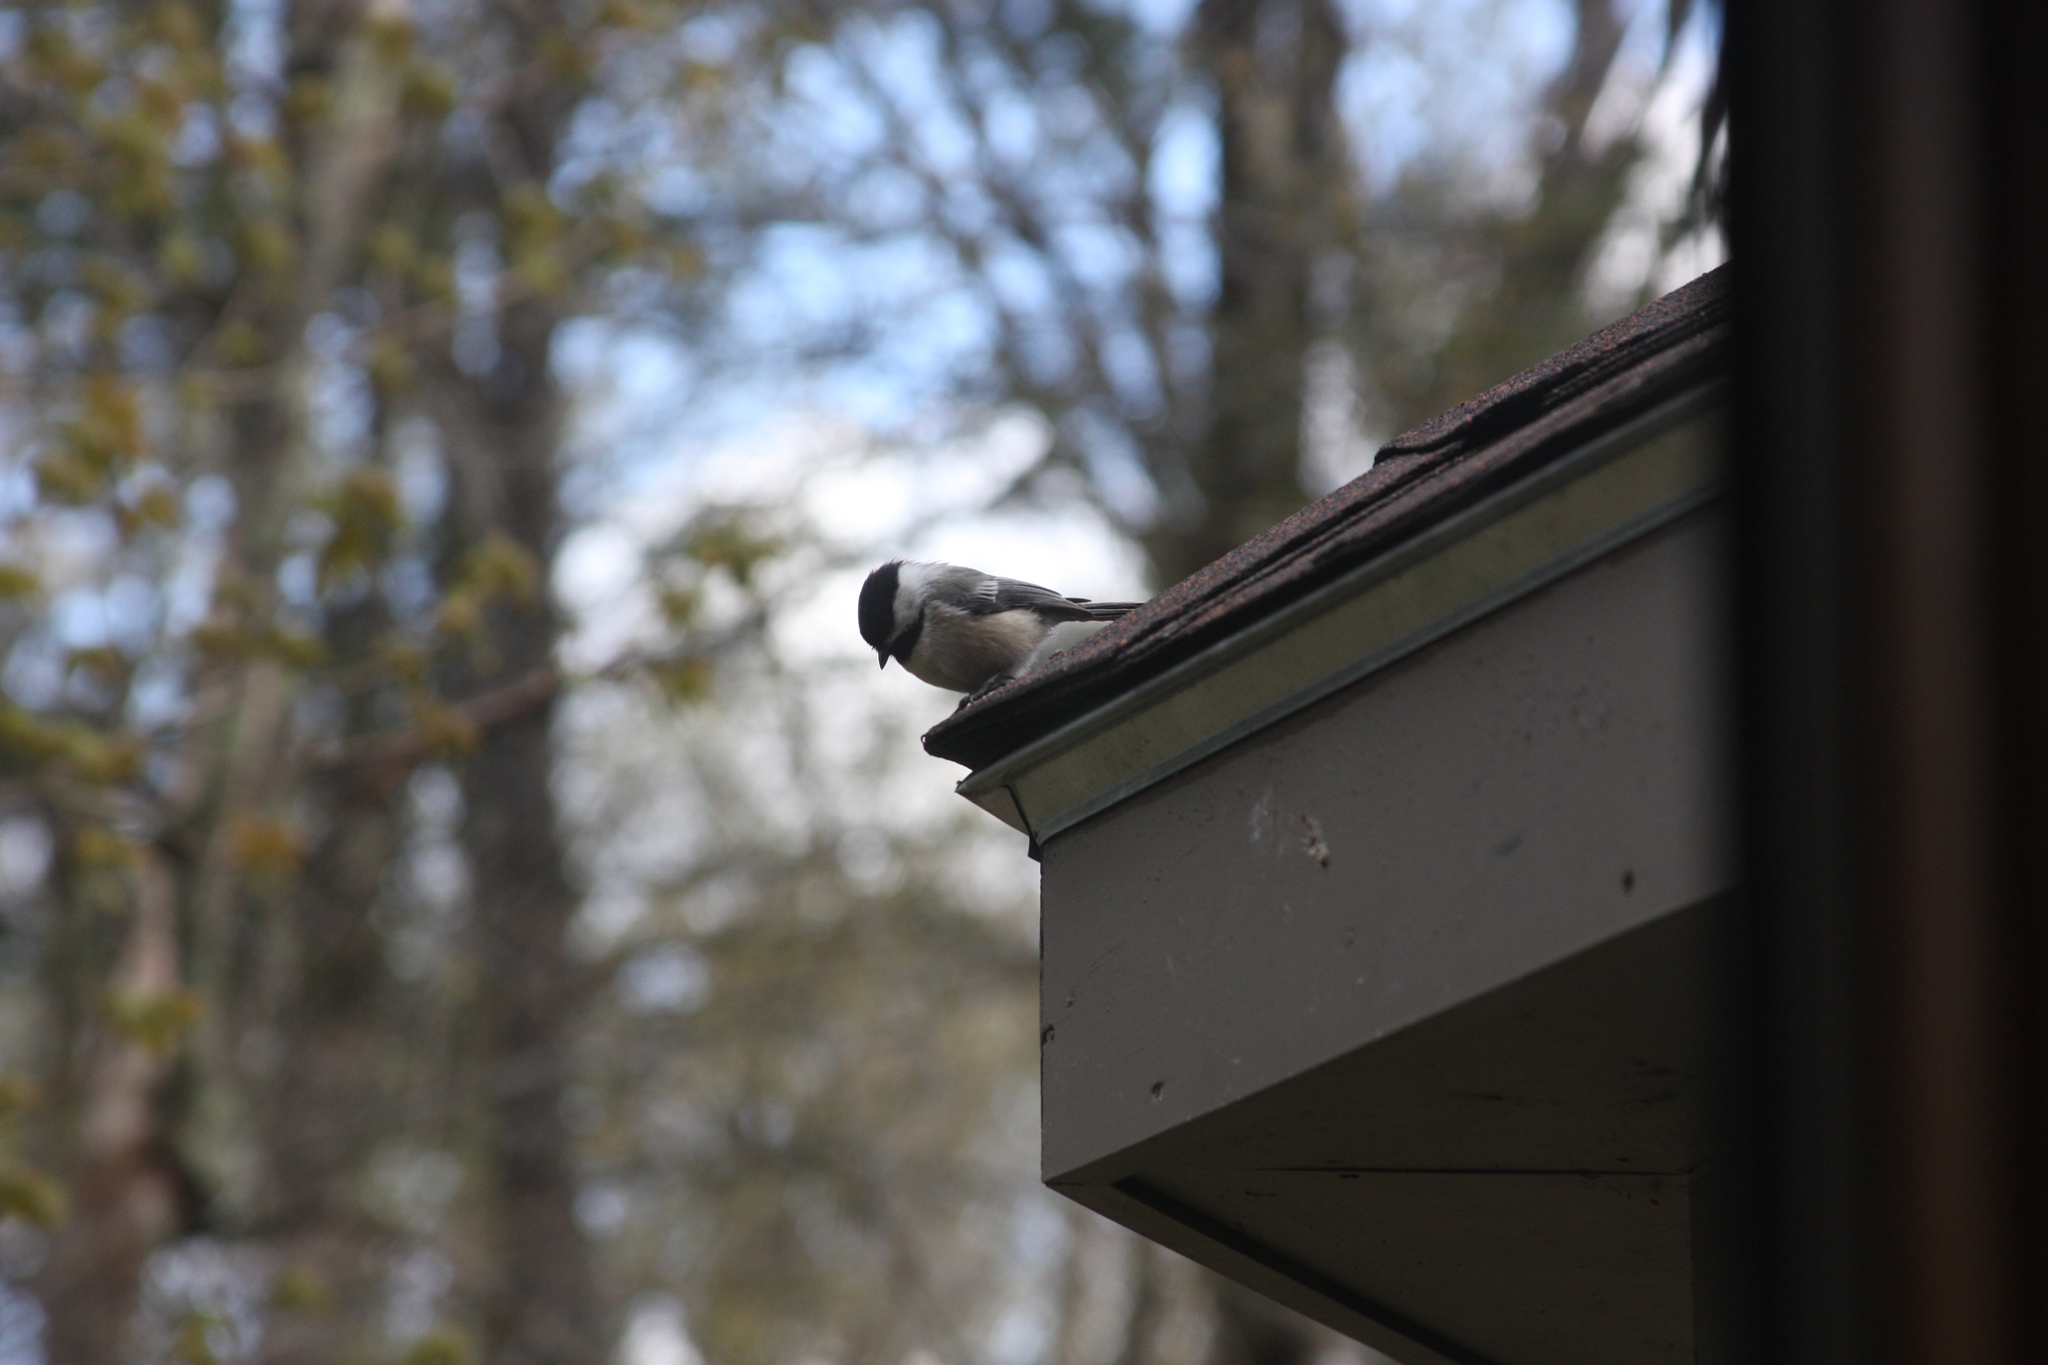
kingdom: Animalia
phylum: Chordata
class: Aves
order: Passeriformes
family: Paridae
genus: Poecile
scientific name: Poecile atricapillus
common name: Black-capped chickadee
